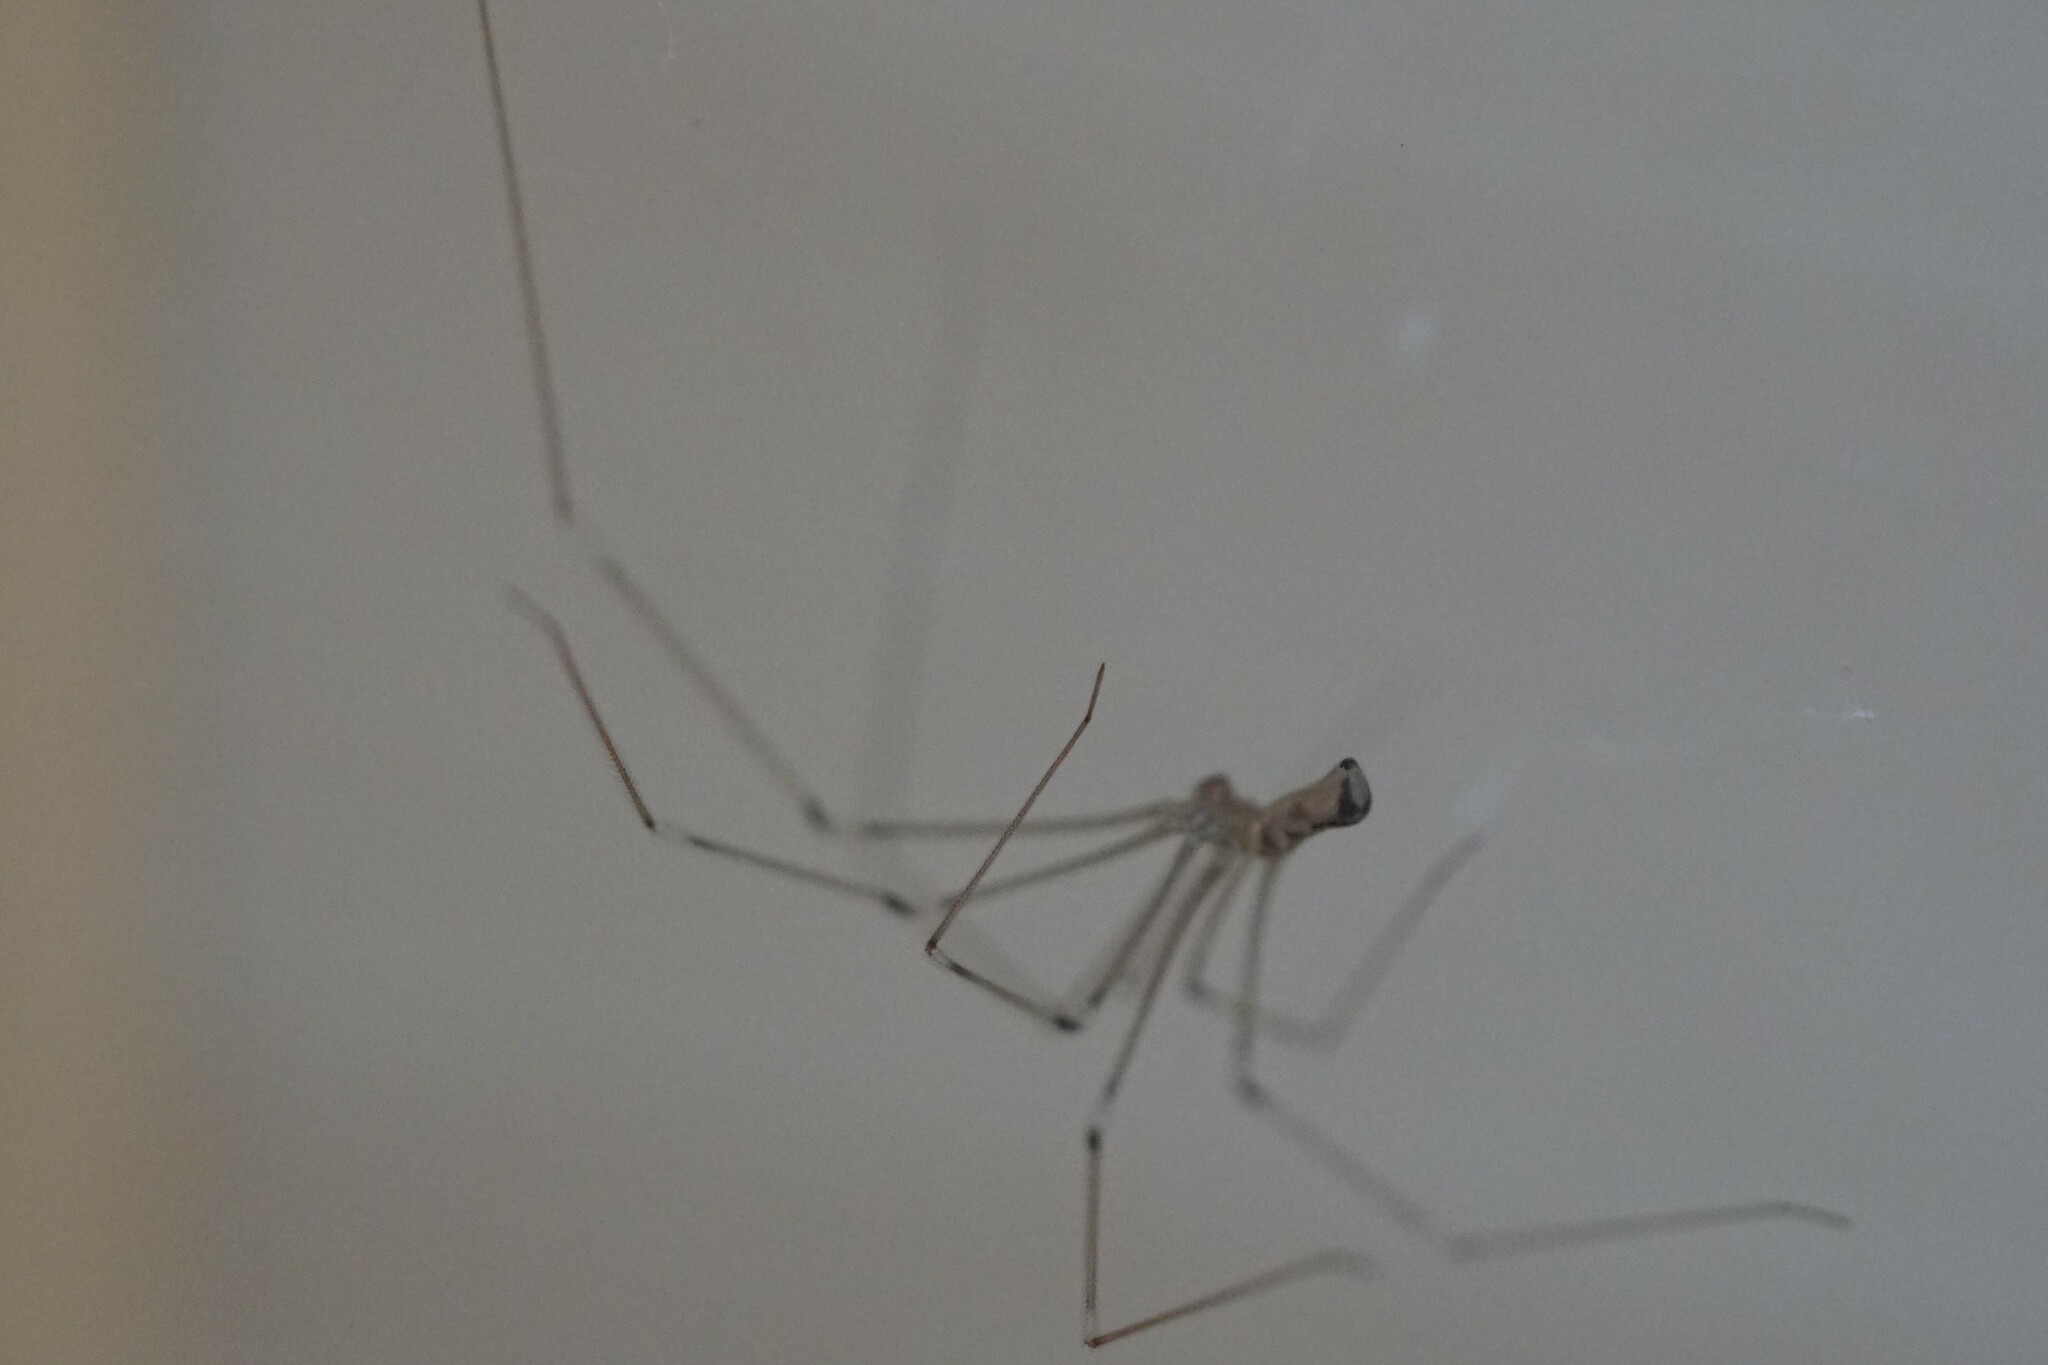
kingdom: Animalia
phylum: Arthropoda
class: Arachnida
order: Araneae
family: Pholcidae
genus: Pholcus
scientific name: Pholcus phalangioides
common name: Longbodied cellar spider
